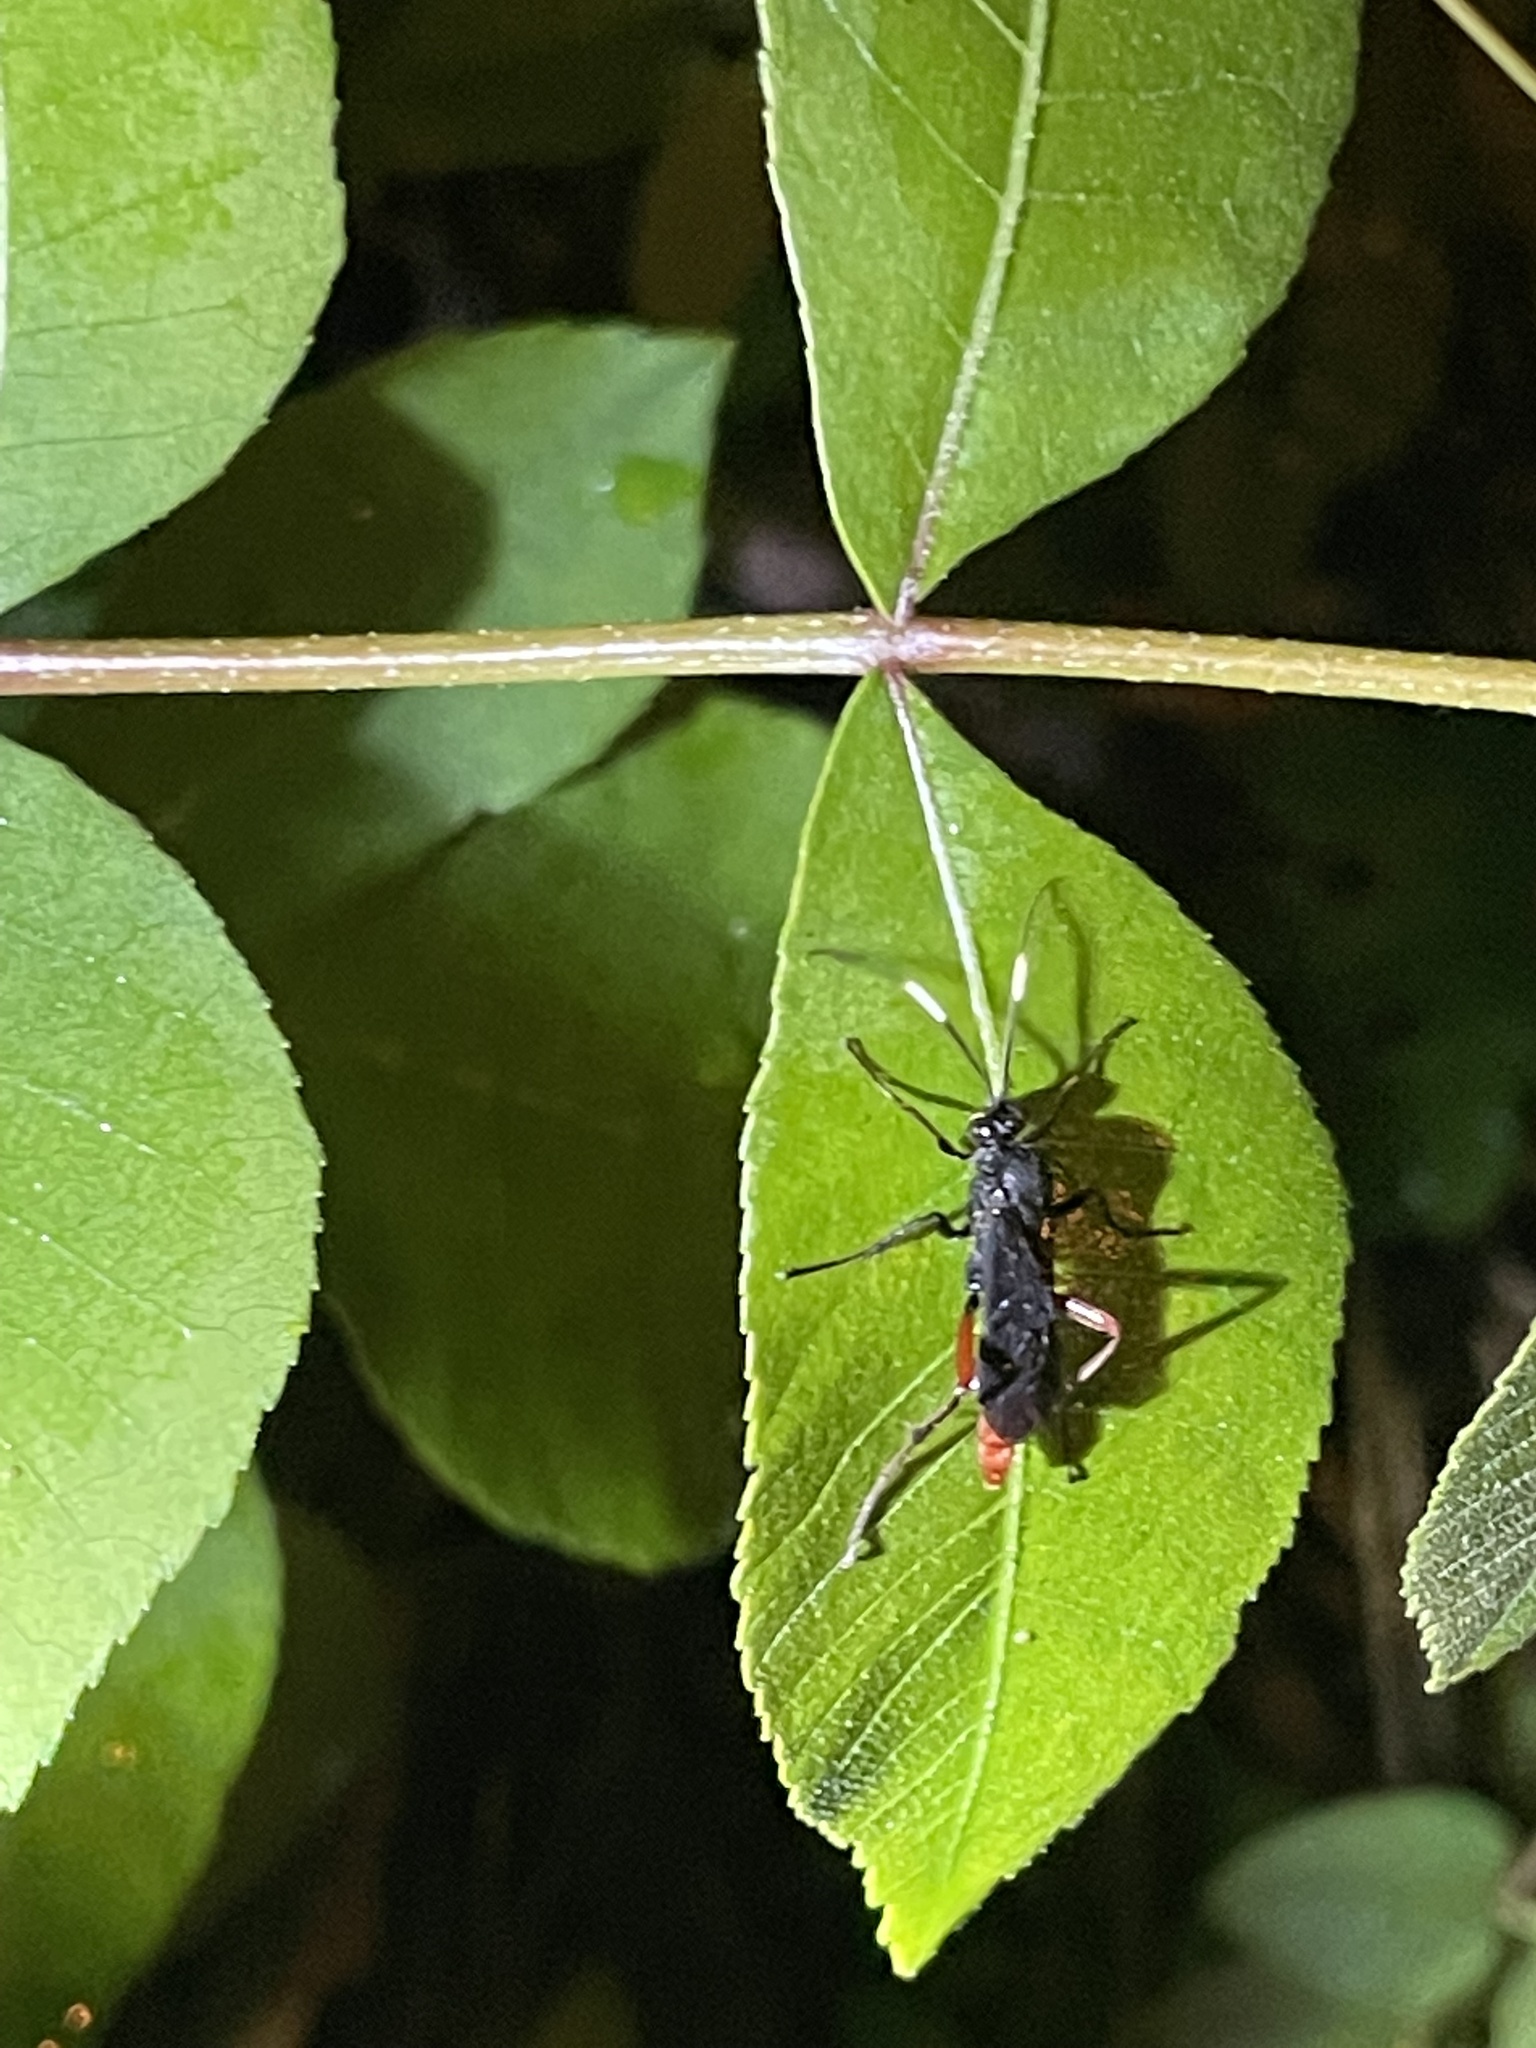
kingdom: Animalia
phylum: Arthropoda
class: Insecta
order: Hymenoptera
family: Ichneumonidae
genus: Limonethe
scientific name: Limonethe maurator
